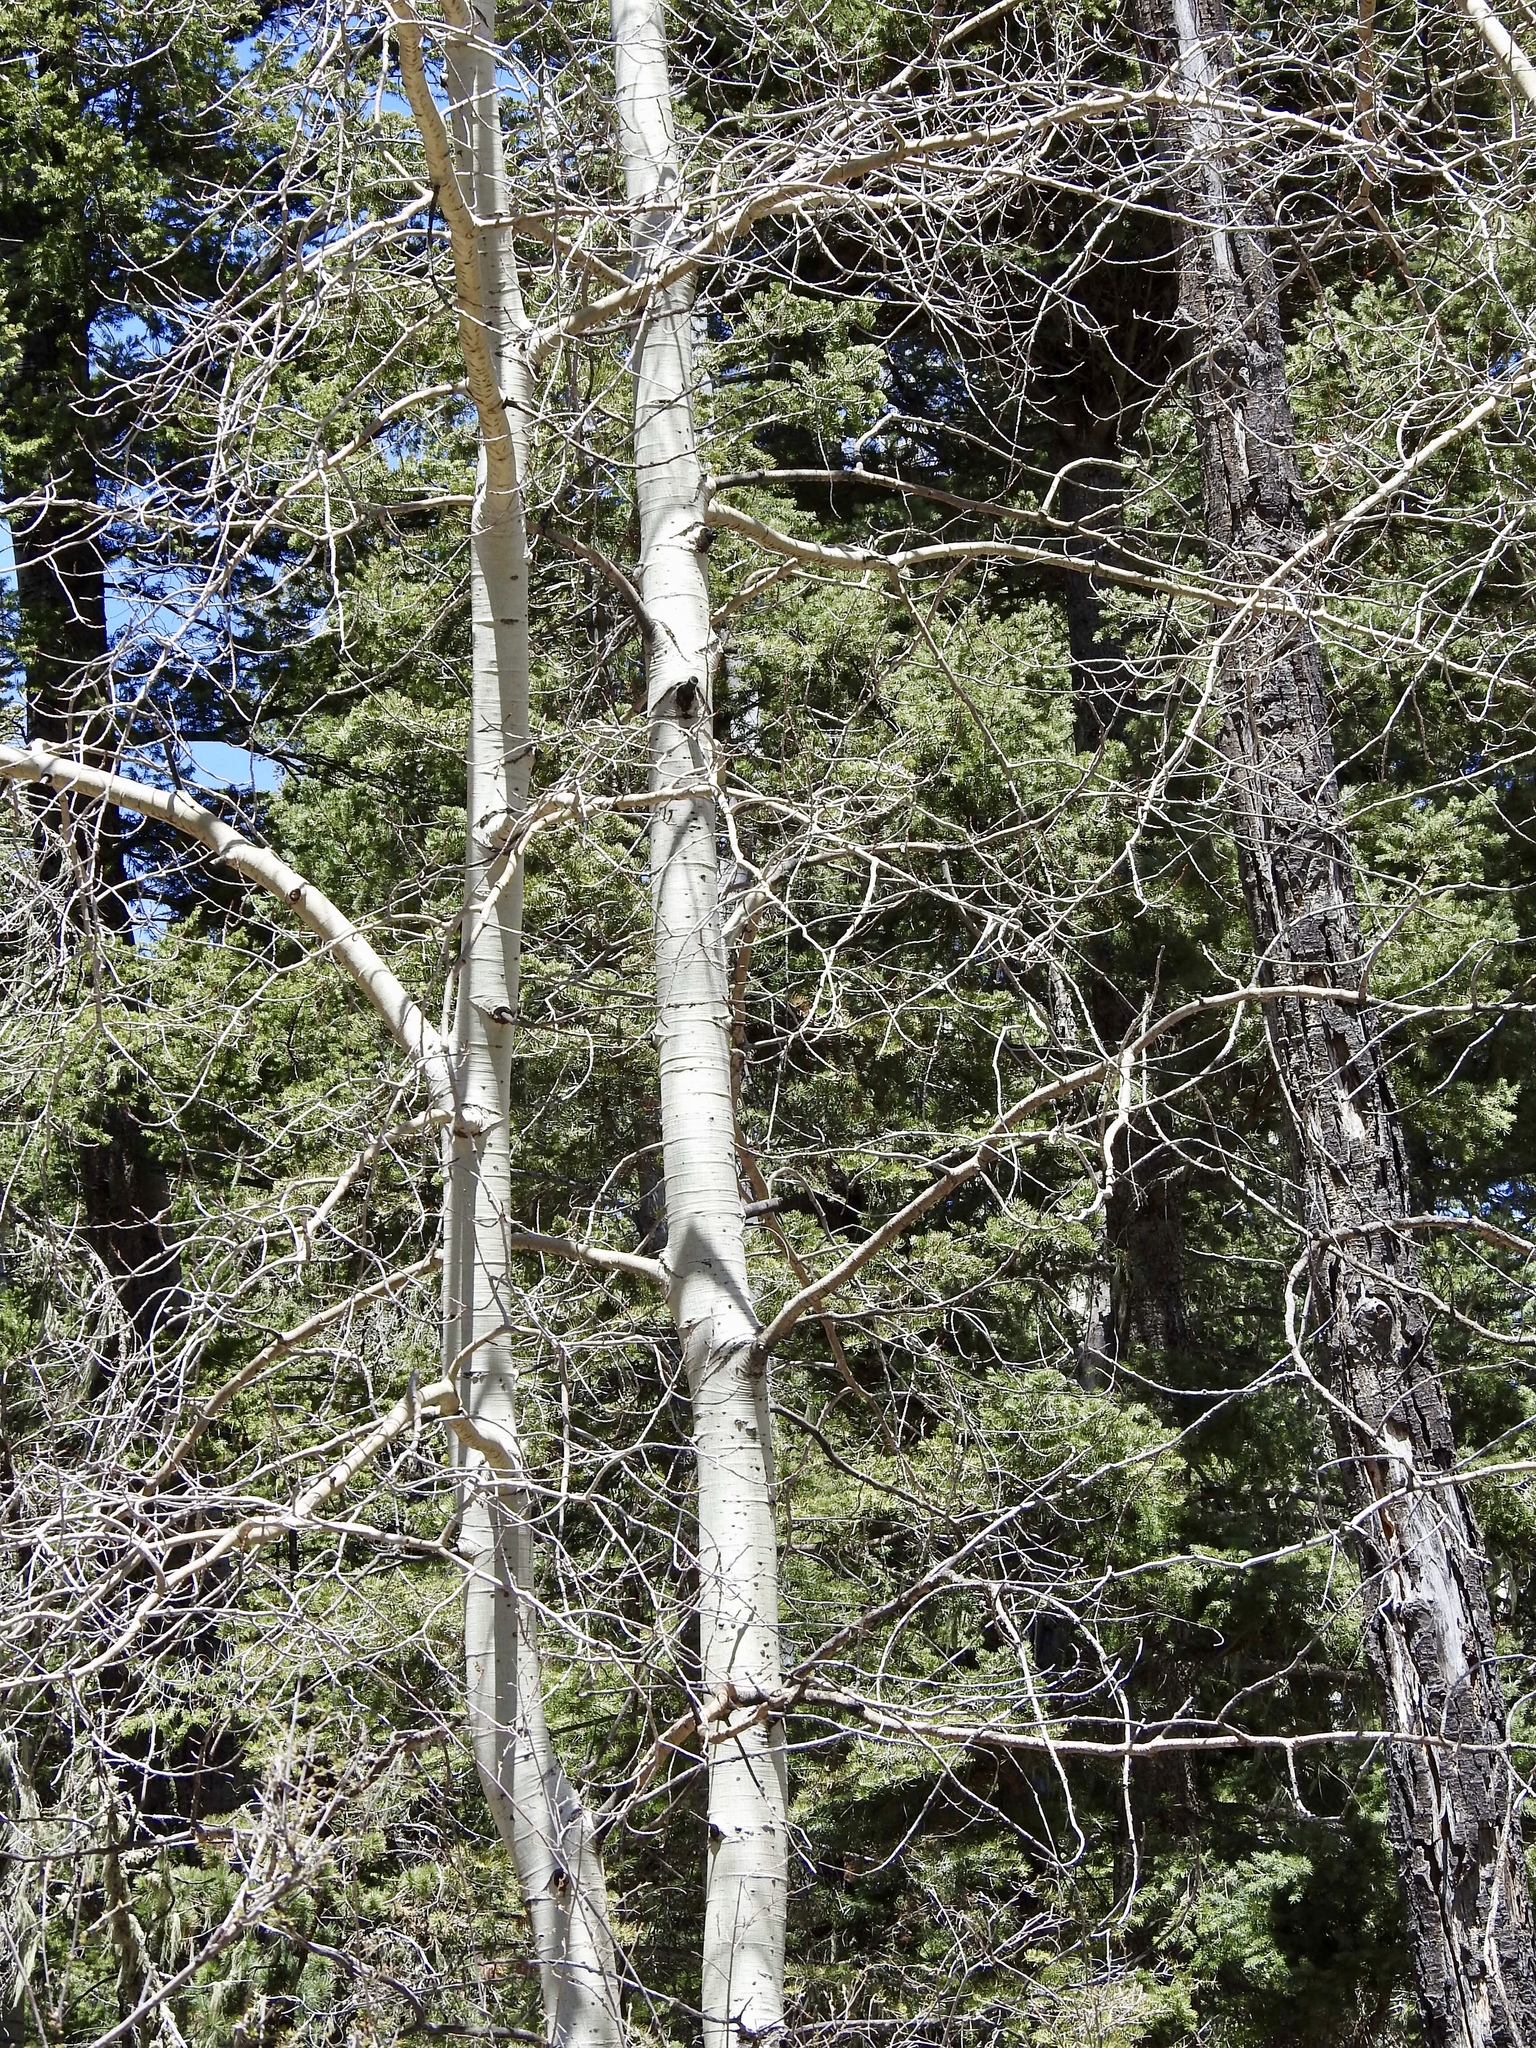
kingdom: Plantae
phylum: Tracheophyta
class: Magnoliopsida
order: Malpighiales
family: Salicaceae
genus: Populus
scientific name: Populus tremuloides
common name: Quaking aspen
